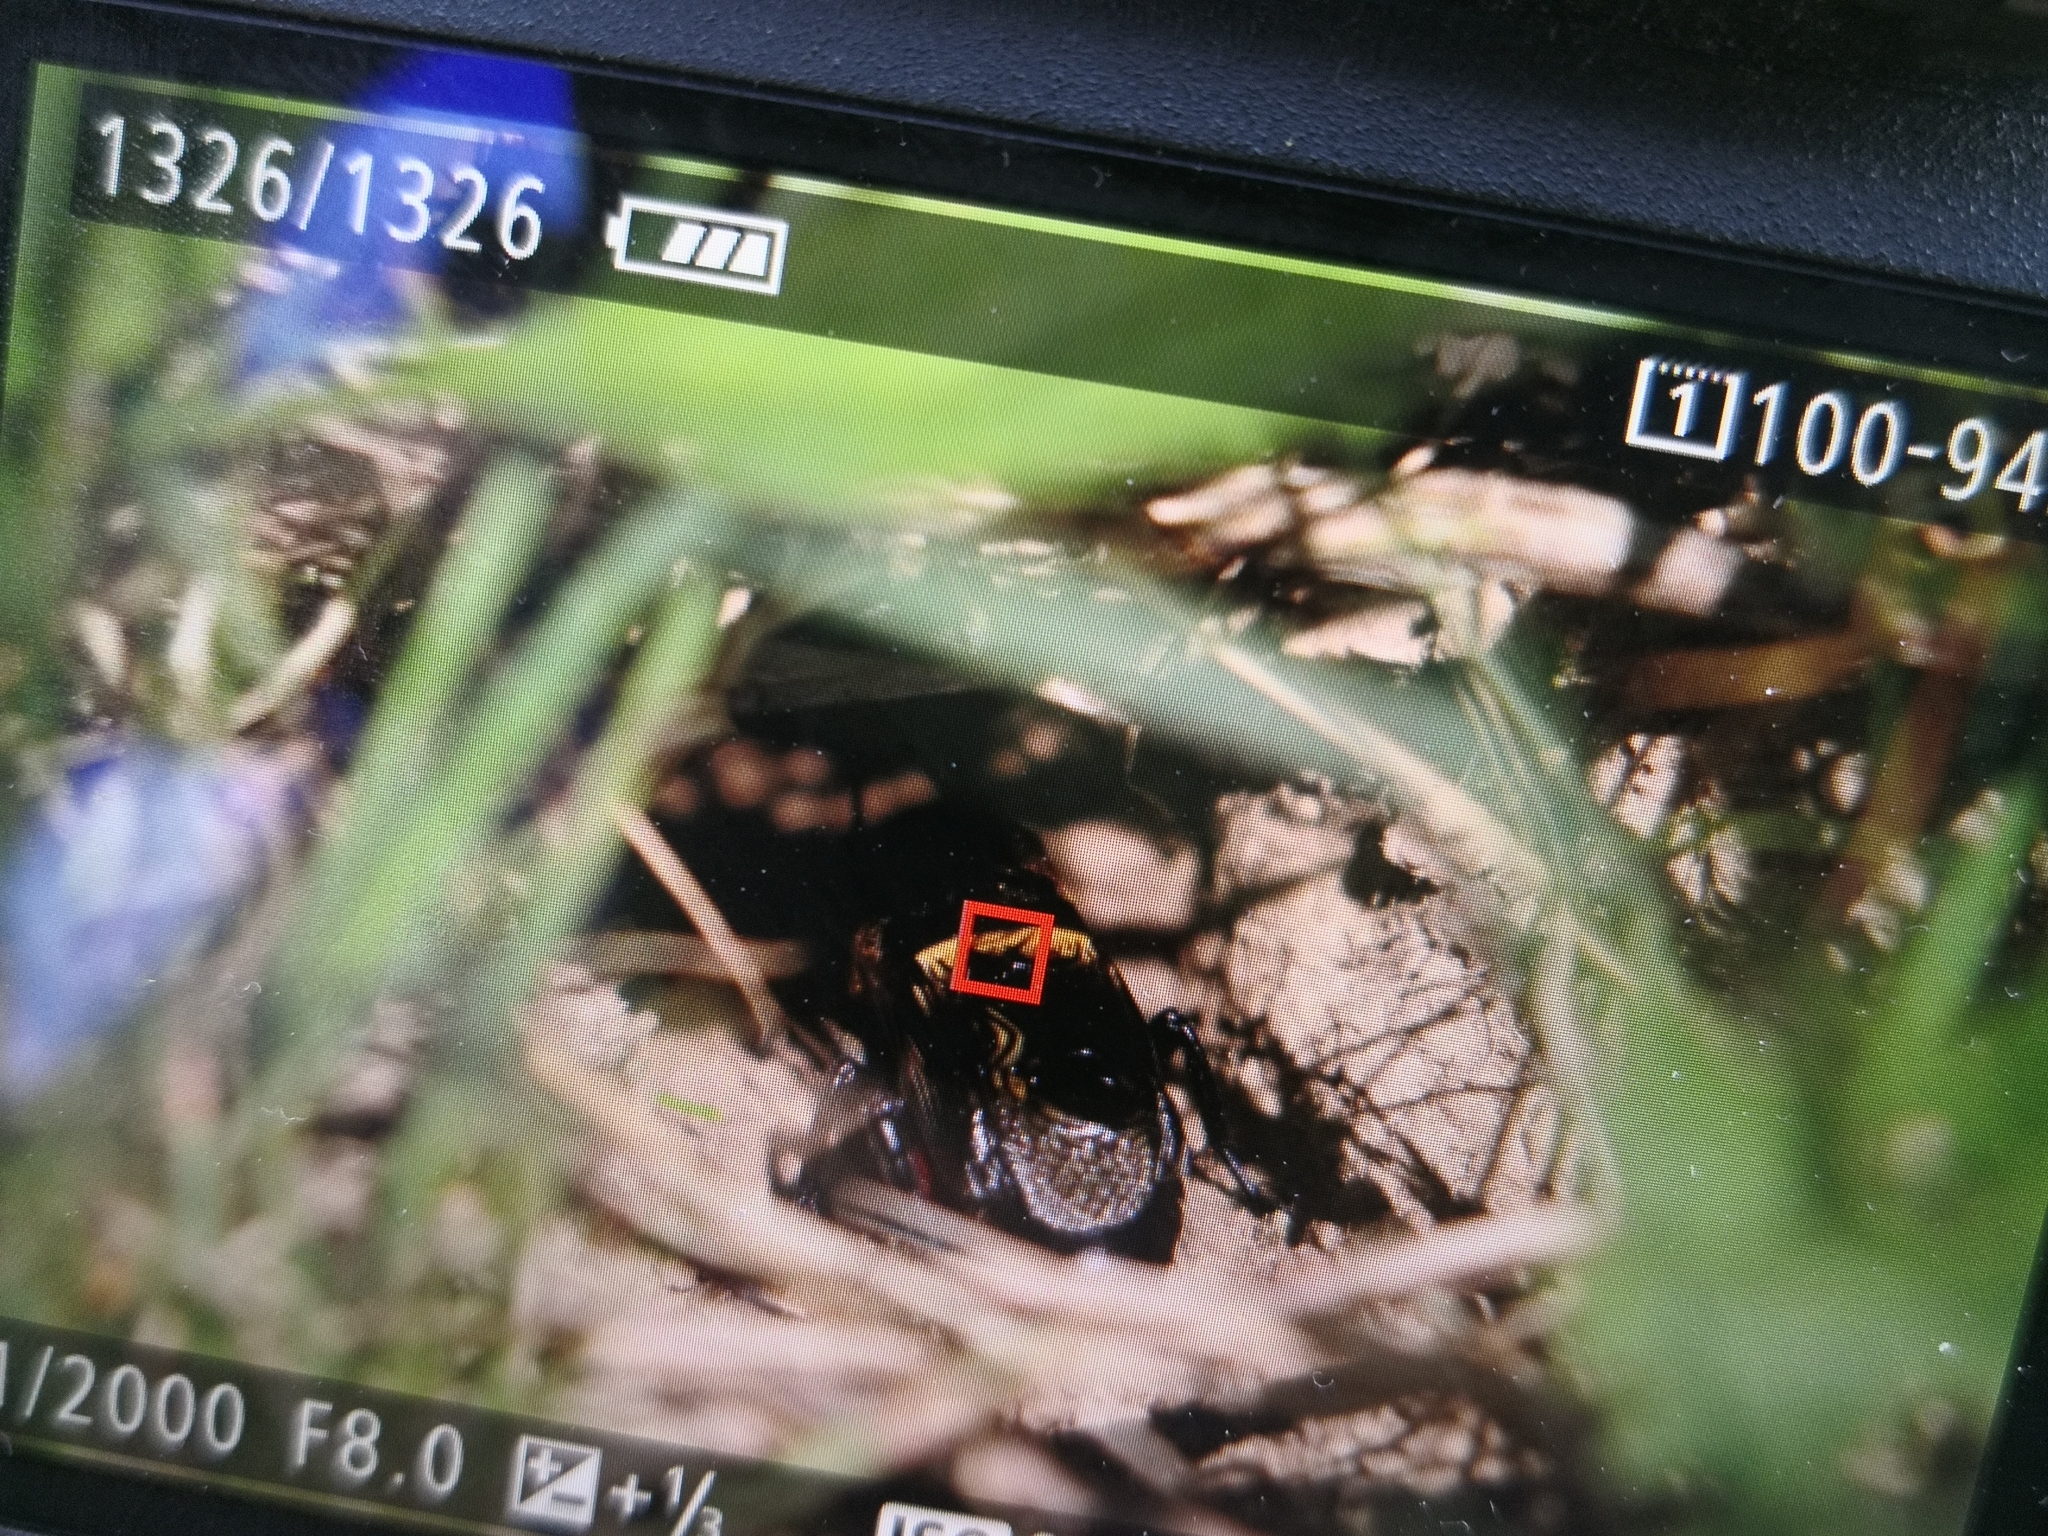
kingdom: Animalia
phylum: Arthropoda
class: Insecta
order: Orthoptera
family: Gryllidae
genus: Gryllus
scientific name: Gryllus campestris
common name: Field cricket
